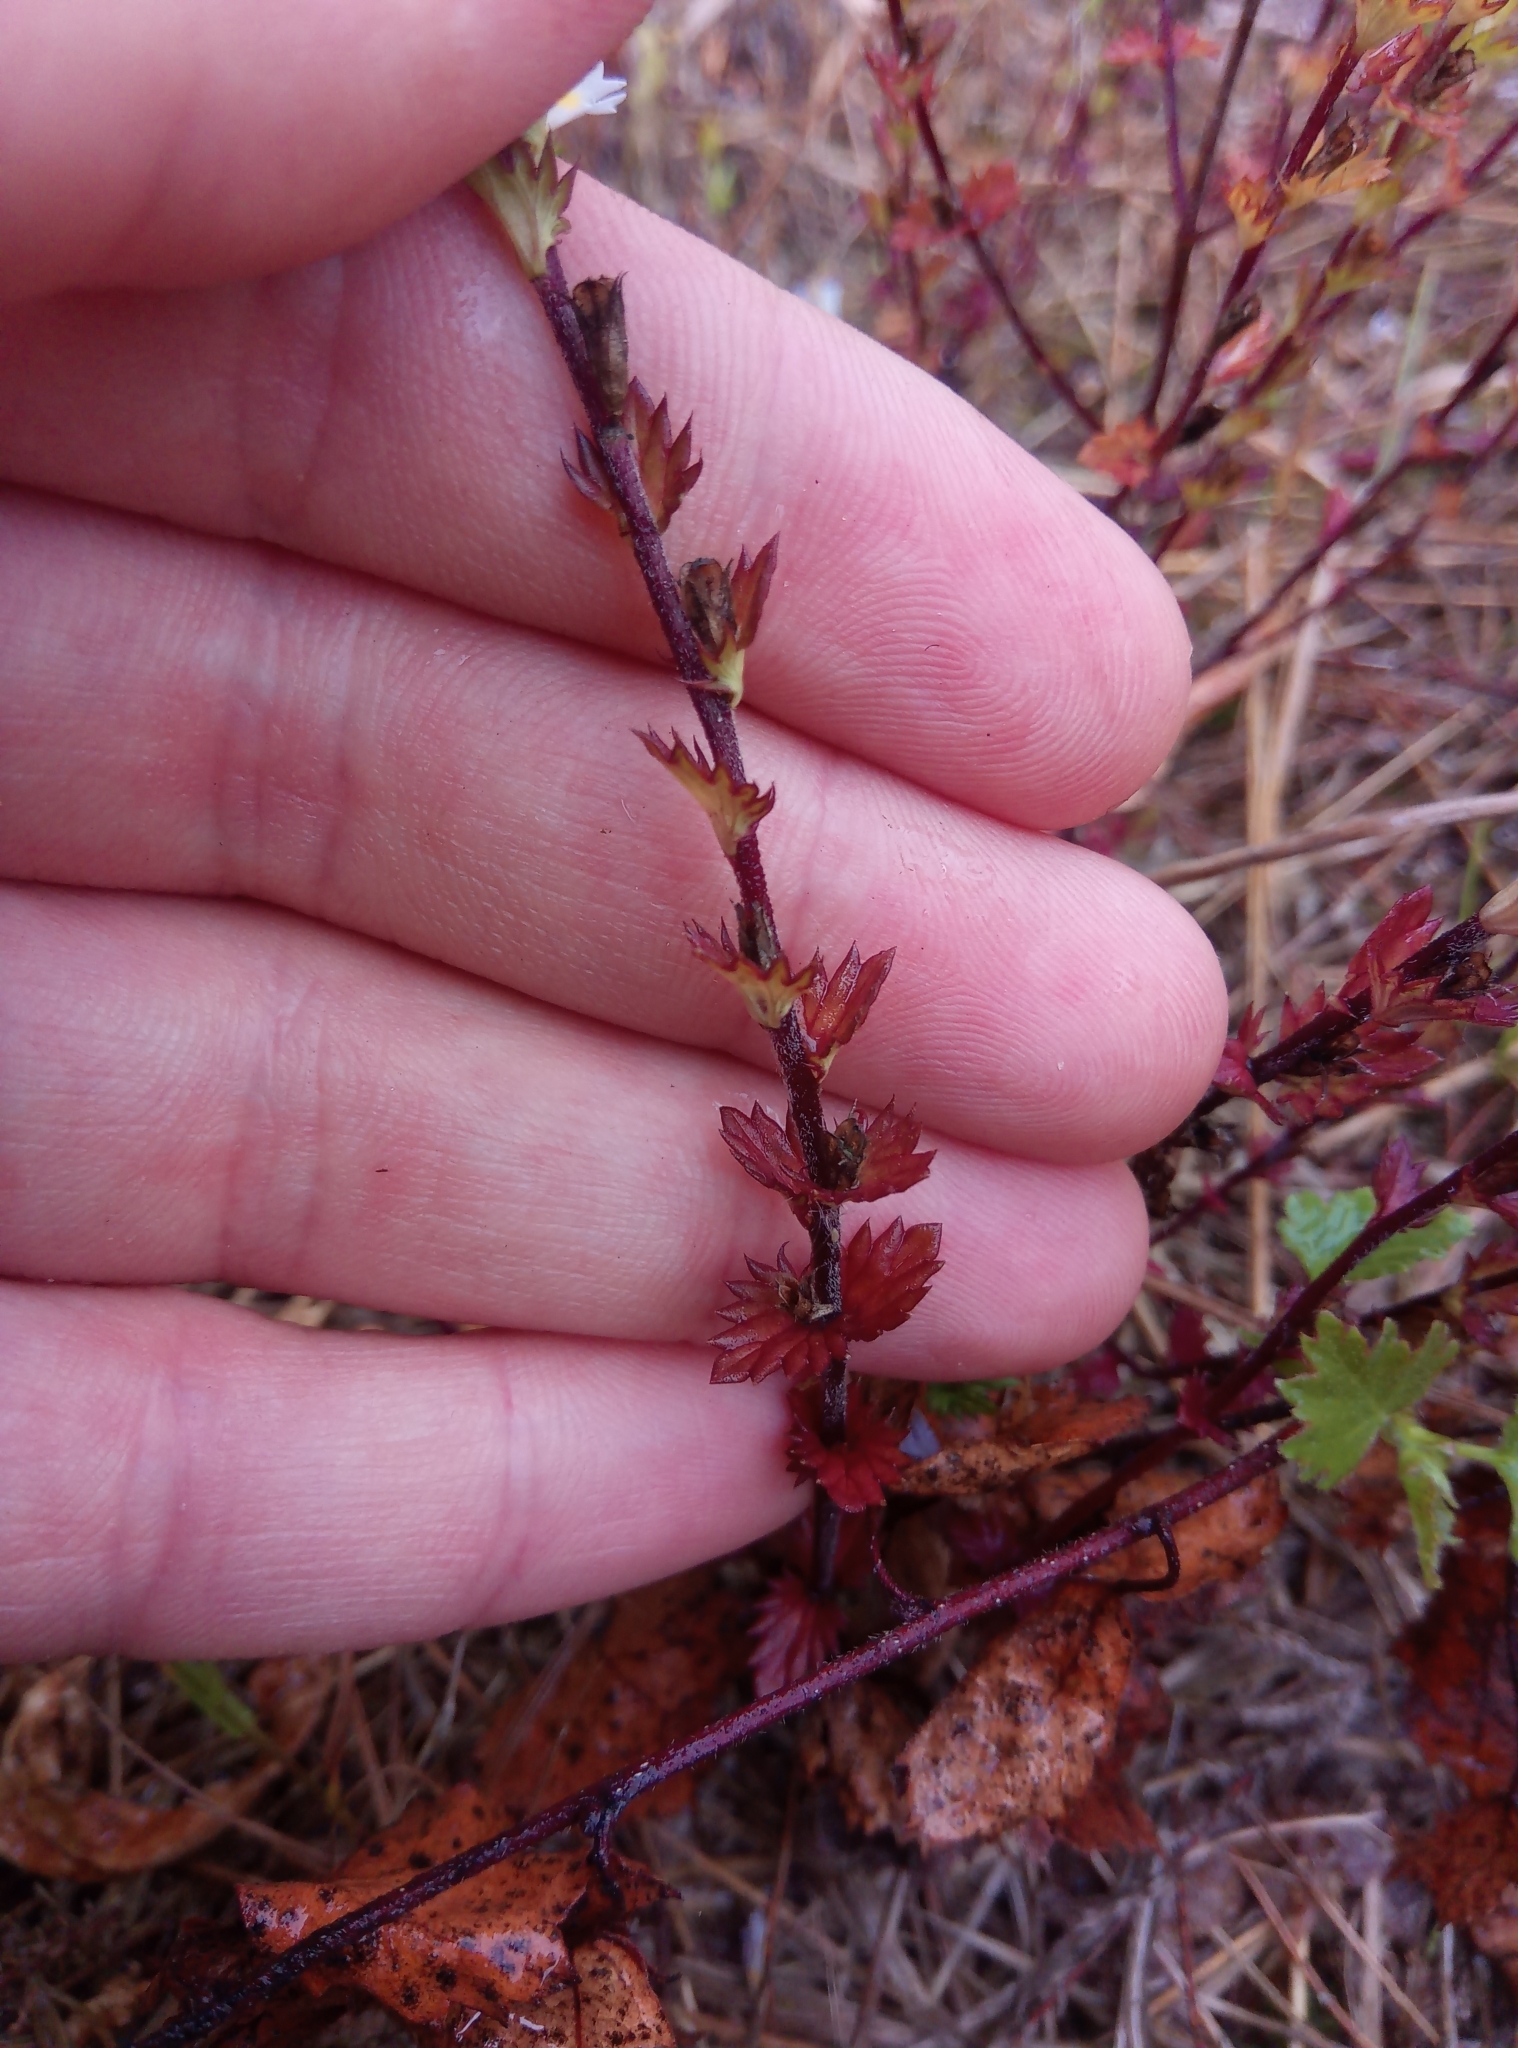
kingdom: Plantae
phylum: Tracheophyta
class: Magnoliopsida
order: Lamiales
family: Orobanchaceae
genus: Euphrasia
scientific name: Euphrasia stricta
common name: Drug eyebright
